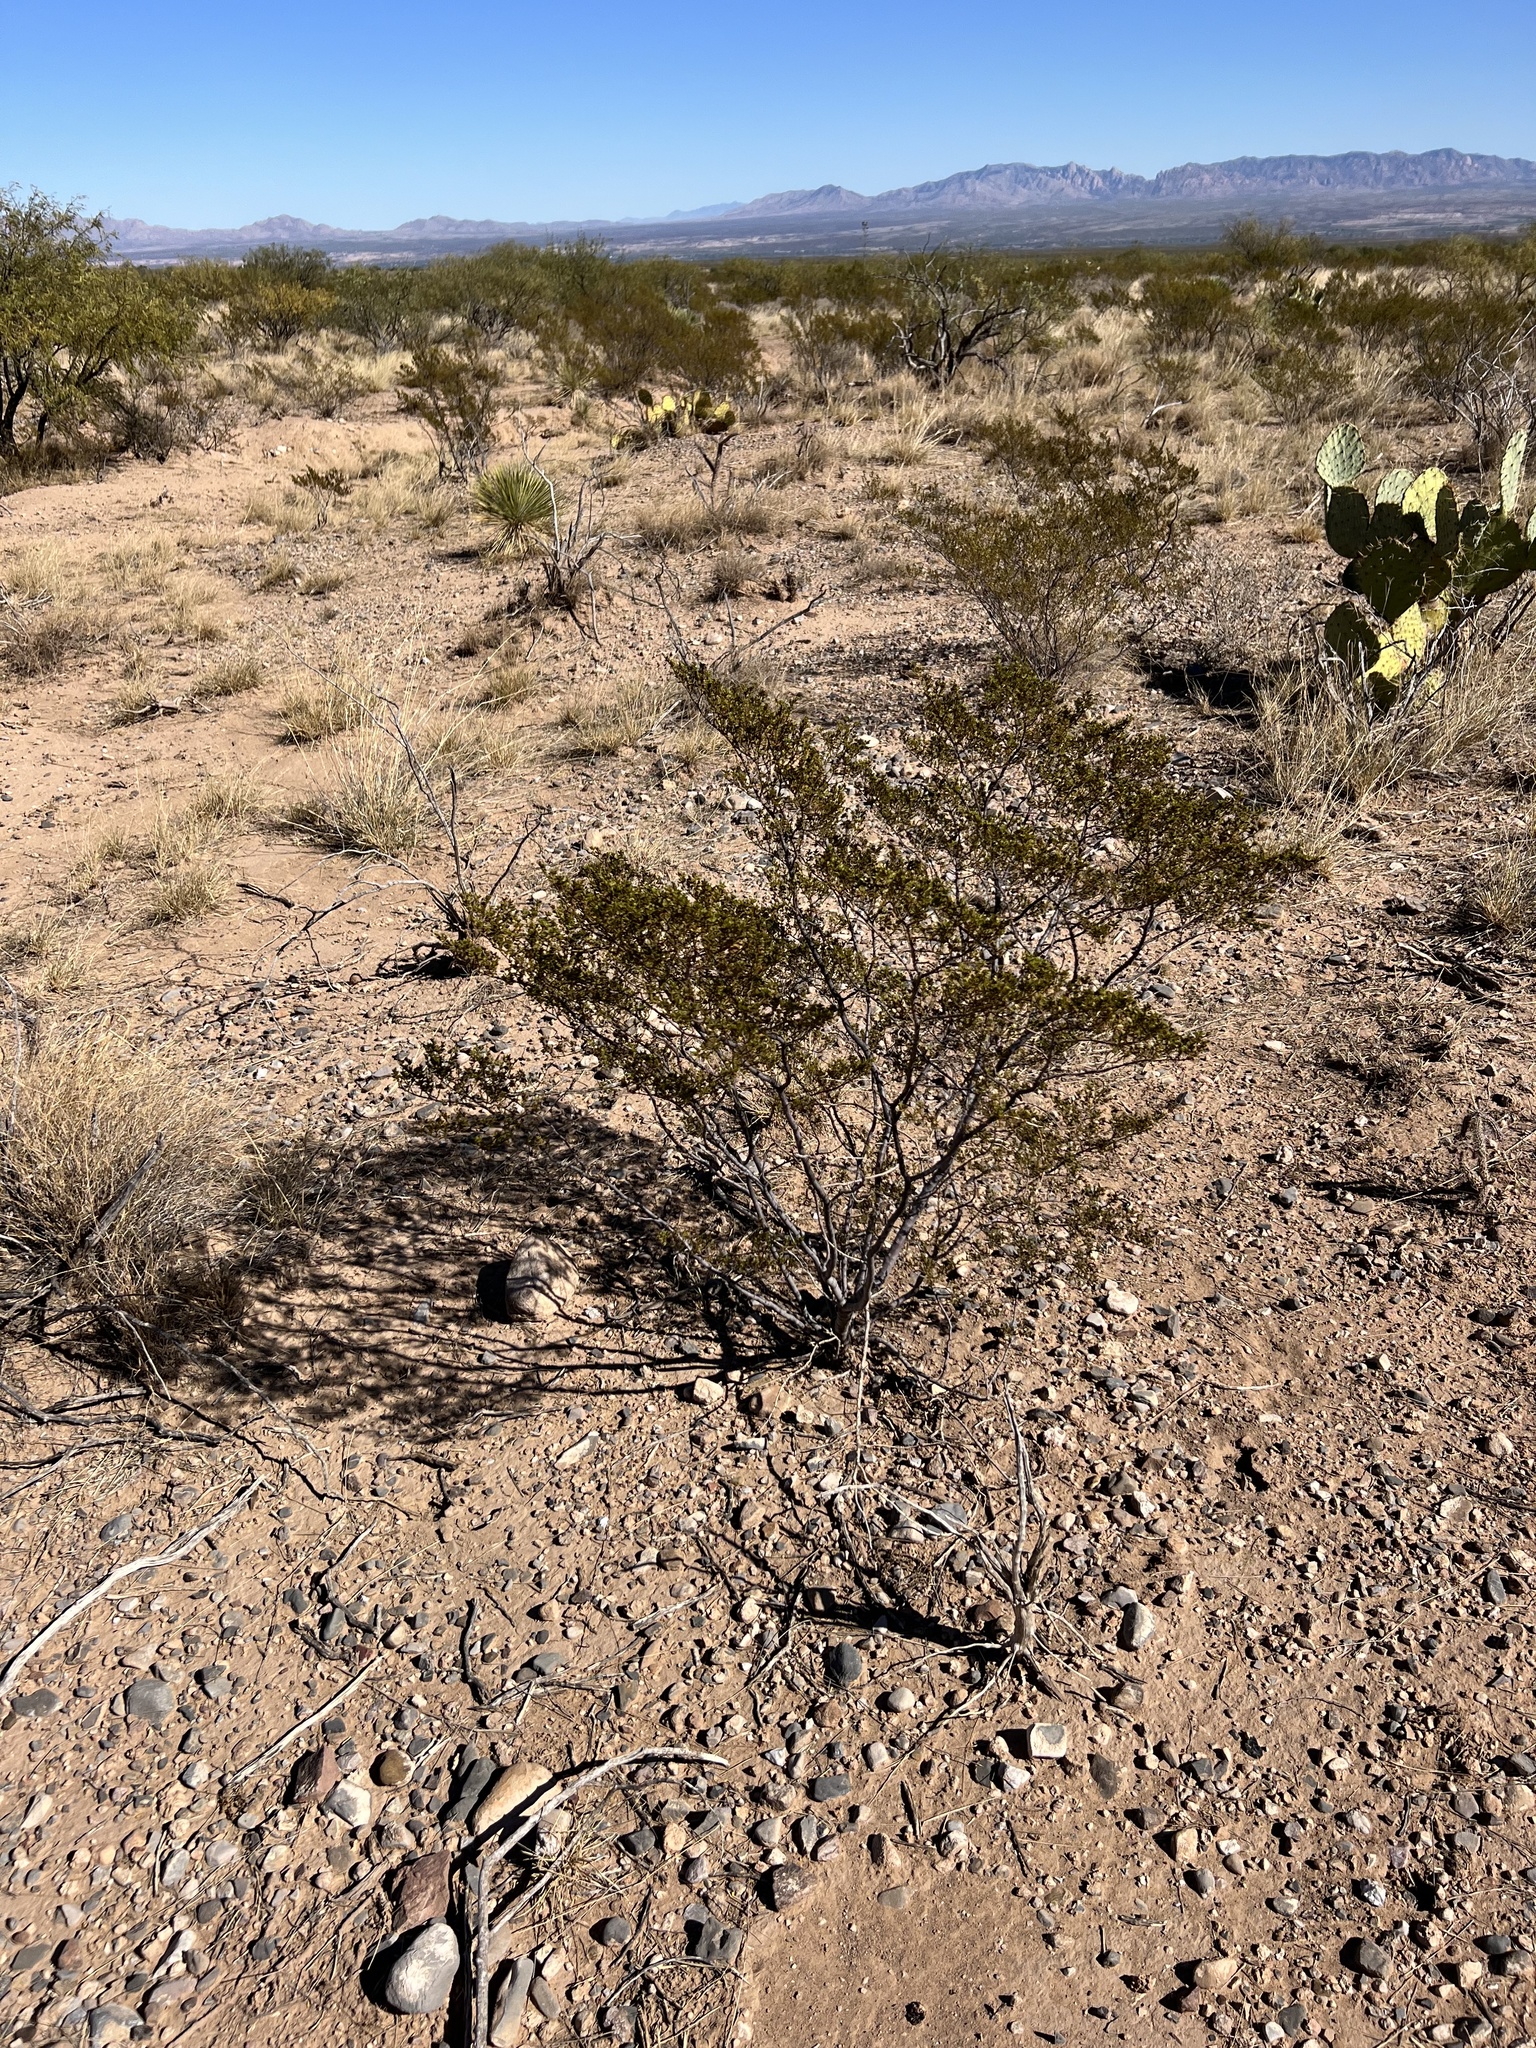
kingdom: Plantae
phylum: Tracheophyta
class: Magnoliopsida
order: Zygophyllales
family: Zygophyllaceae
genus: Larrea
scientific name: Larrea tridentata
